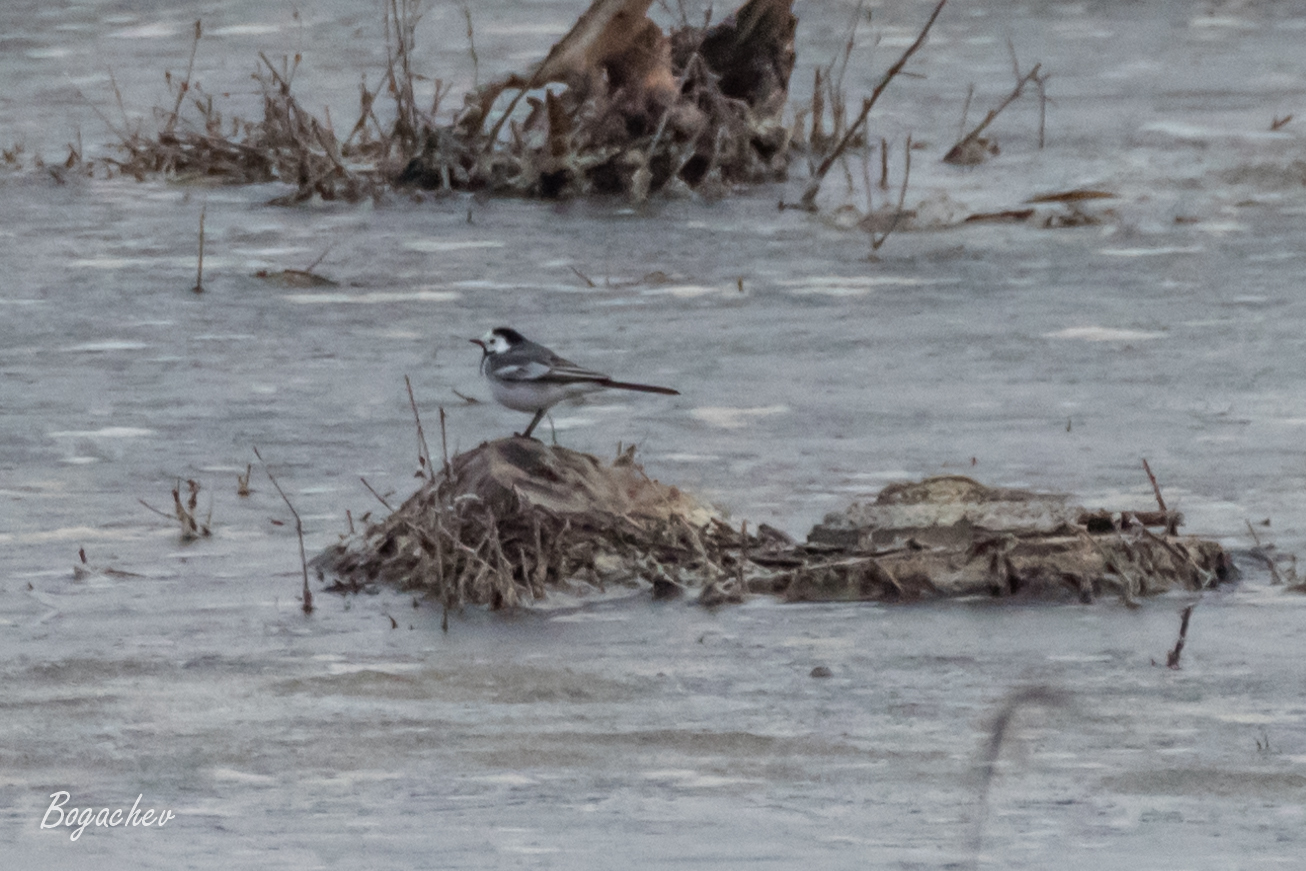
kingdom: Animalia
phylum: Chordata
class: Aves
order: Passeriformes
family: Motacillidae
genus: Motacilla
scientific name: Motacilla alba
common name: White wagtail
